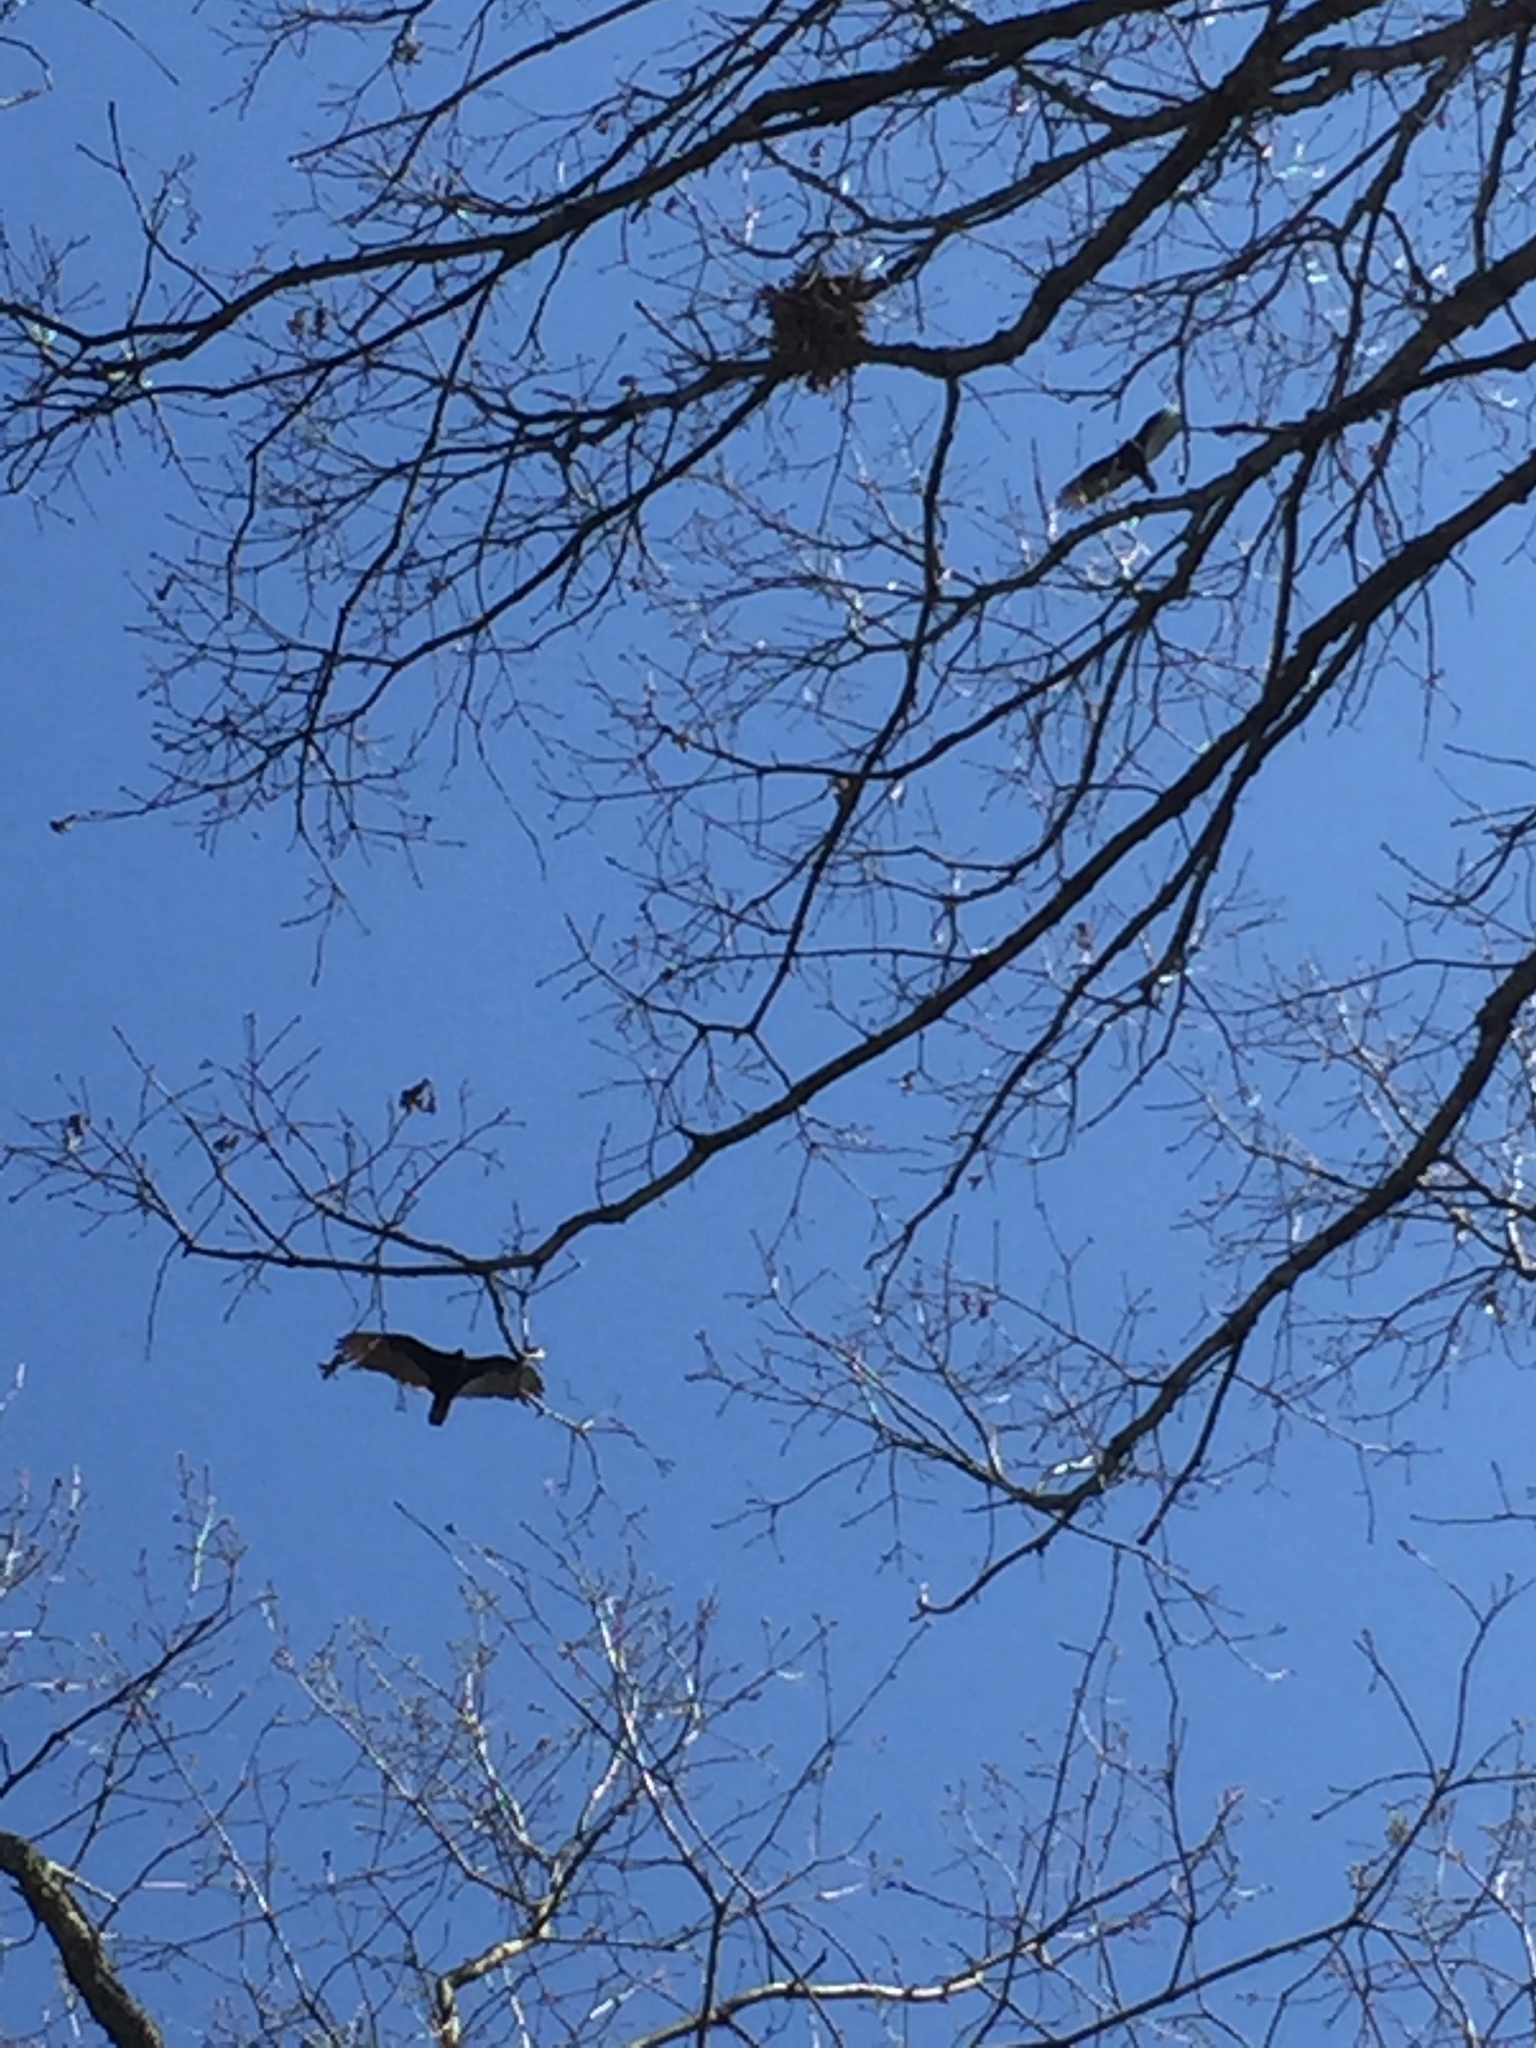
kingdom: Animalia
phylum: Chordata
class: Aves
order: Accipitriformes
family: Cathartidae
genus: Cathartes
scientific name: Cathartes aura
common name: Turkey vulture
